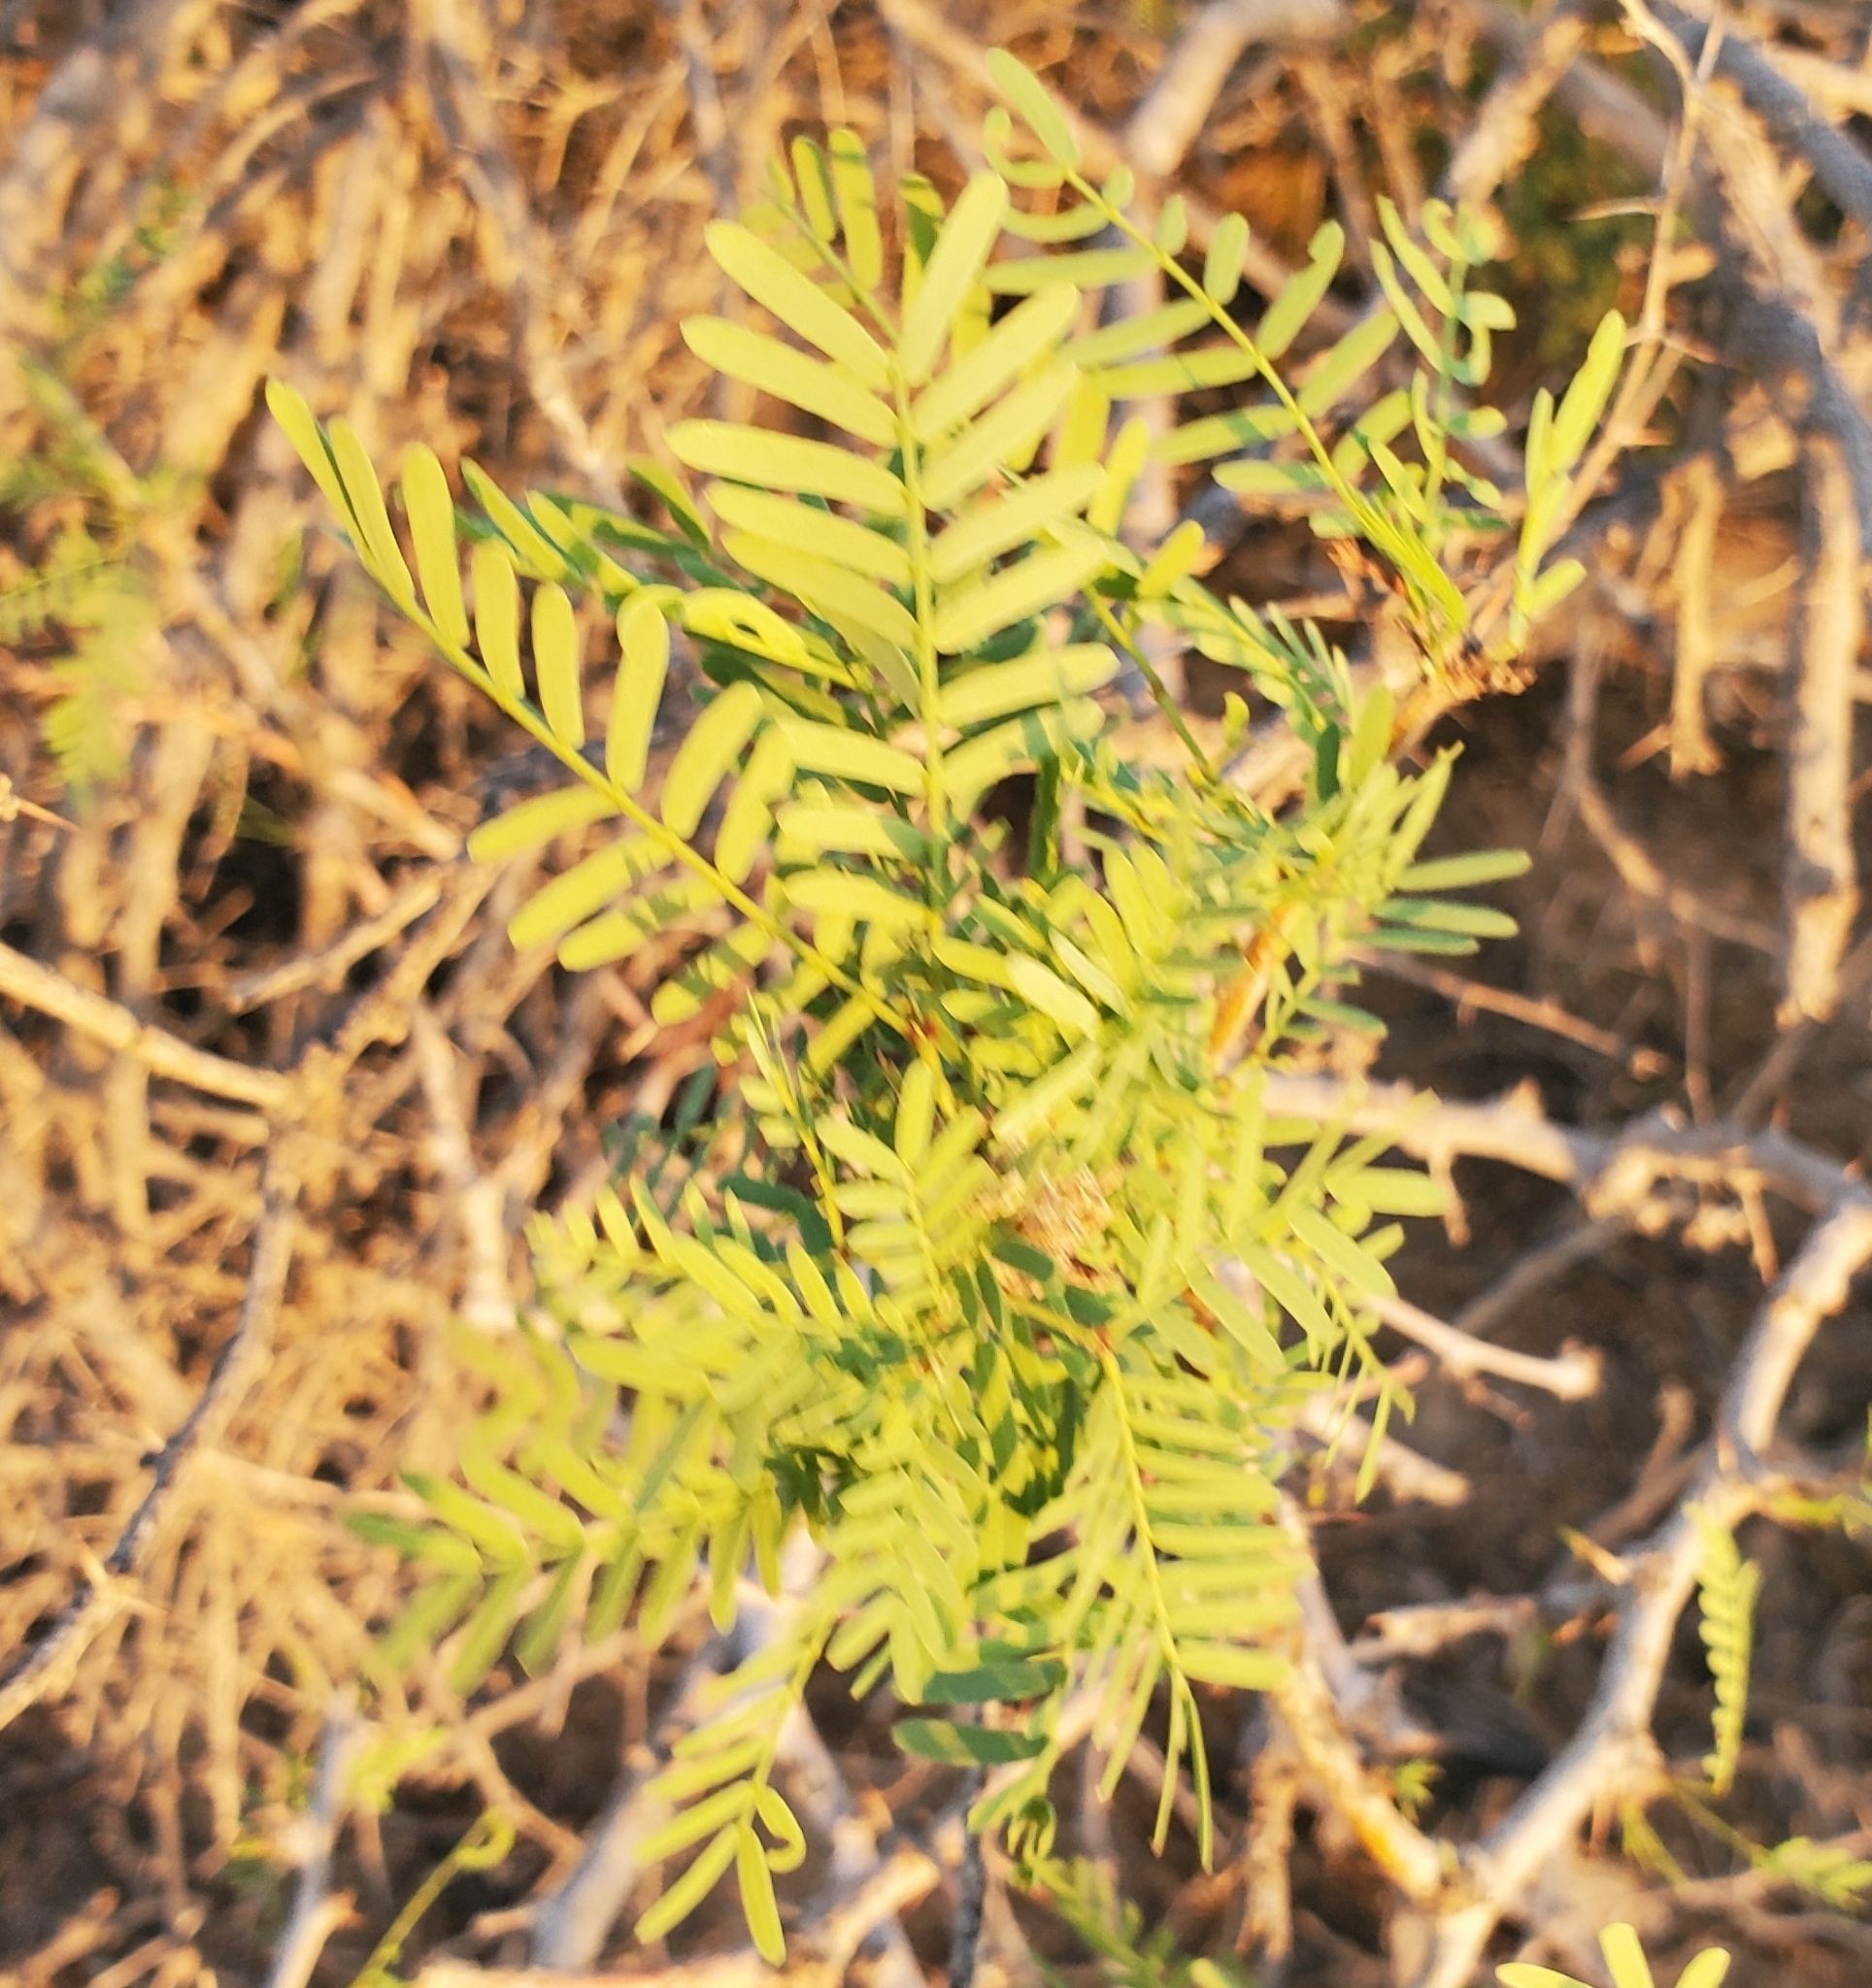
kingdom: Plantae
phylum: Tracheophyta
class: Magnoliopsida
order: Fabales
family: Fabaceae
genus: Prosopis
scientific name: Prosopis pubescens
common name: Screw-bean
